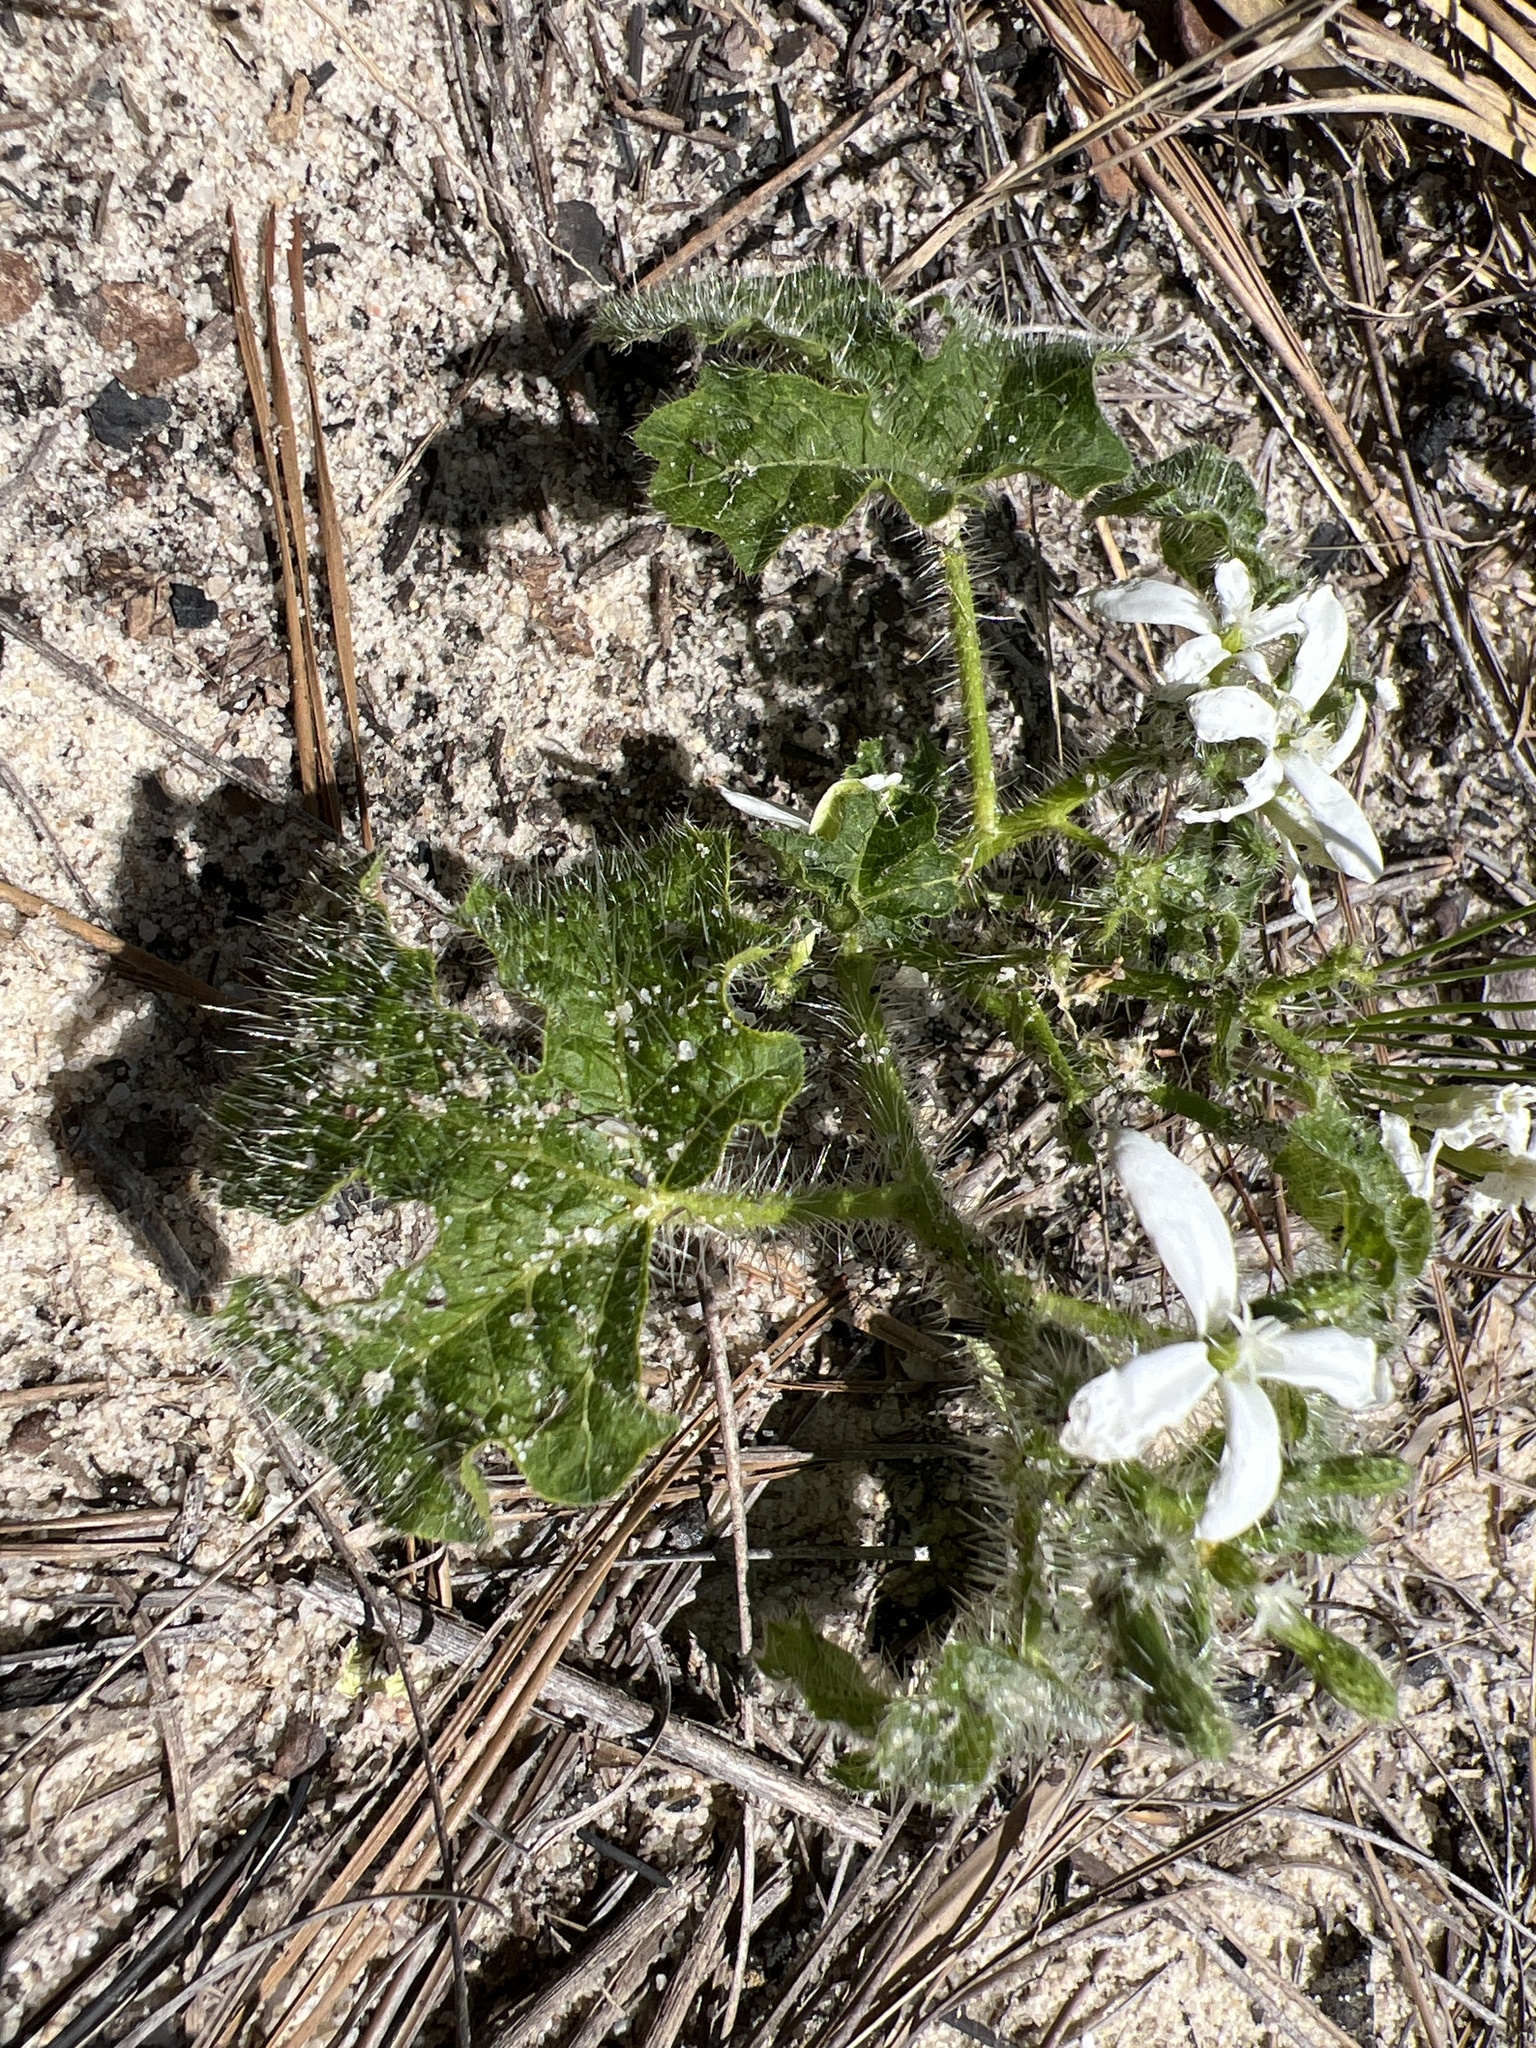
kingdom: Plantae
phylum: Tracheophyta
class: Magnoliopsida
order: Malpighiales
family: Euphorbiaceae
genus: Cnidoscolus
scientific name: Cnidoscolus stimulosus
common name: Bull-nettle
